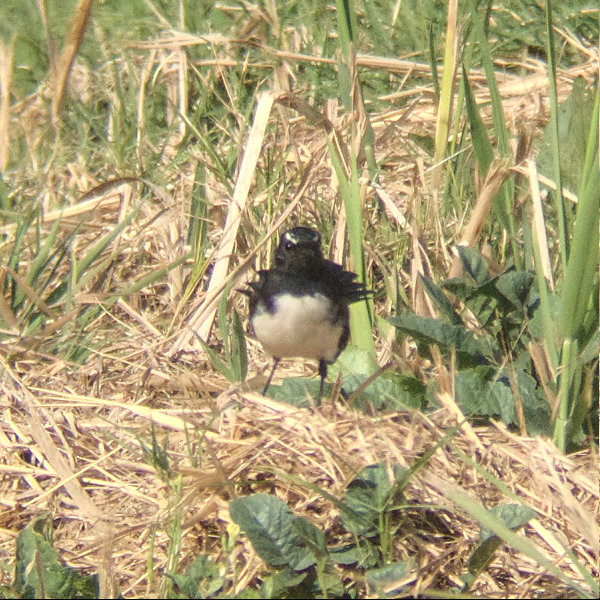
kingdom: Animalia
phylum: Chordata
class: Aves
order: Passeriformes
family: Rhipiduridae
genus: Rhipidura
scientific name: Rhipidura leucophrys
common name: Willie wagtail
